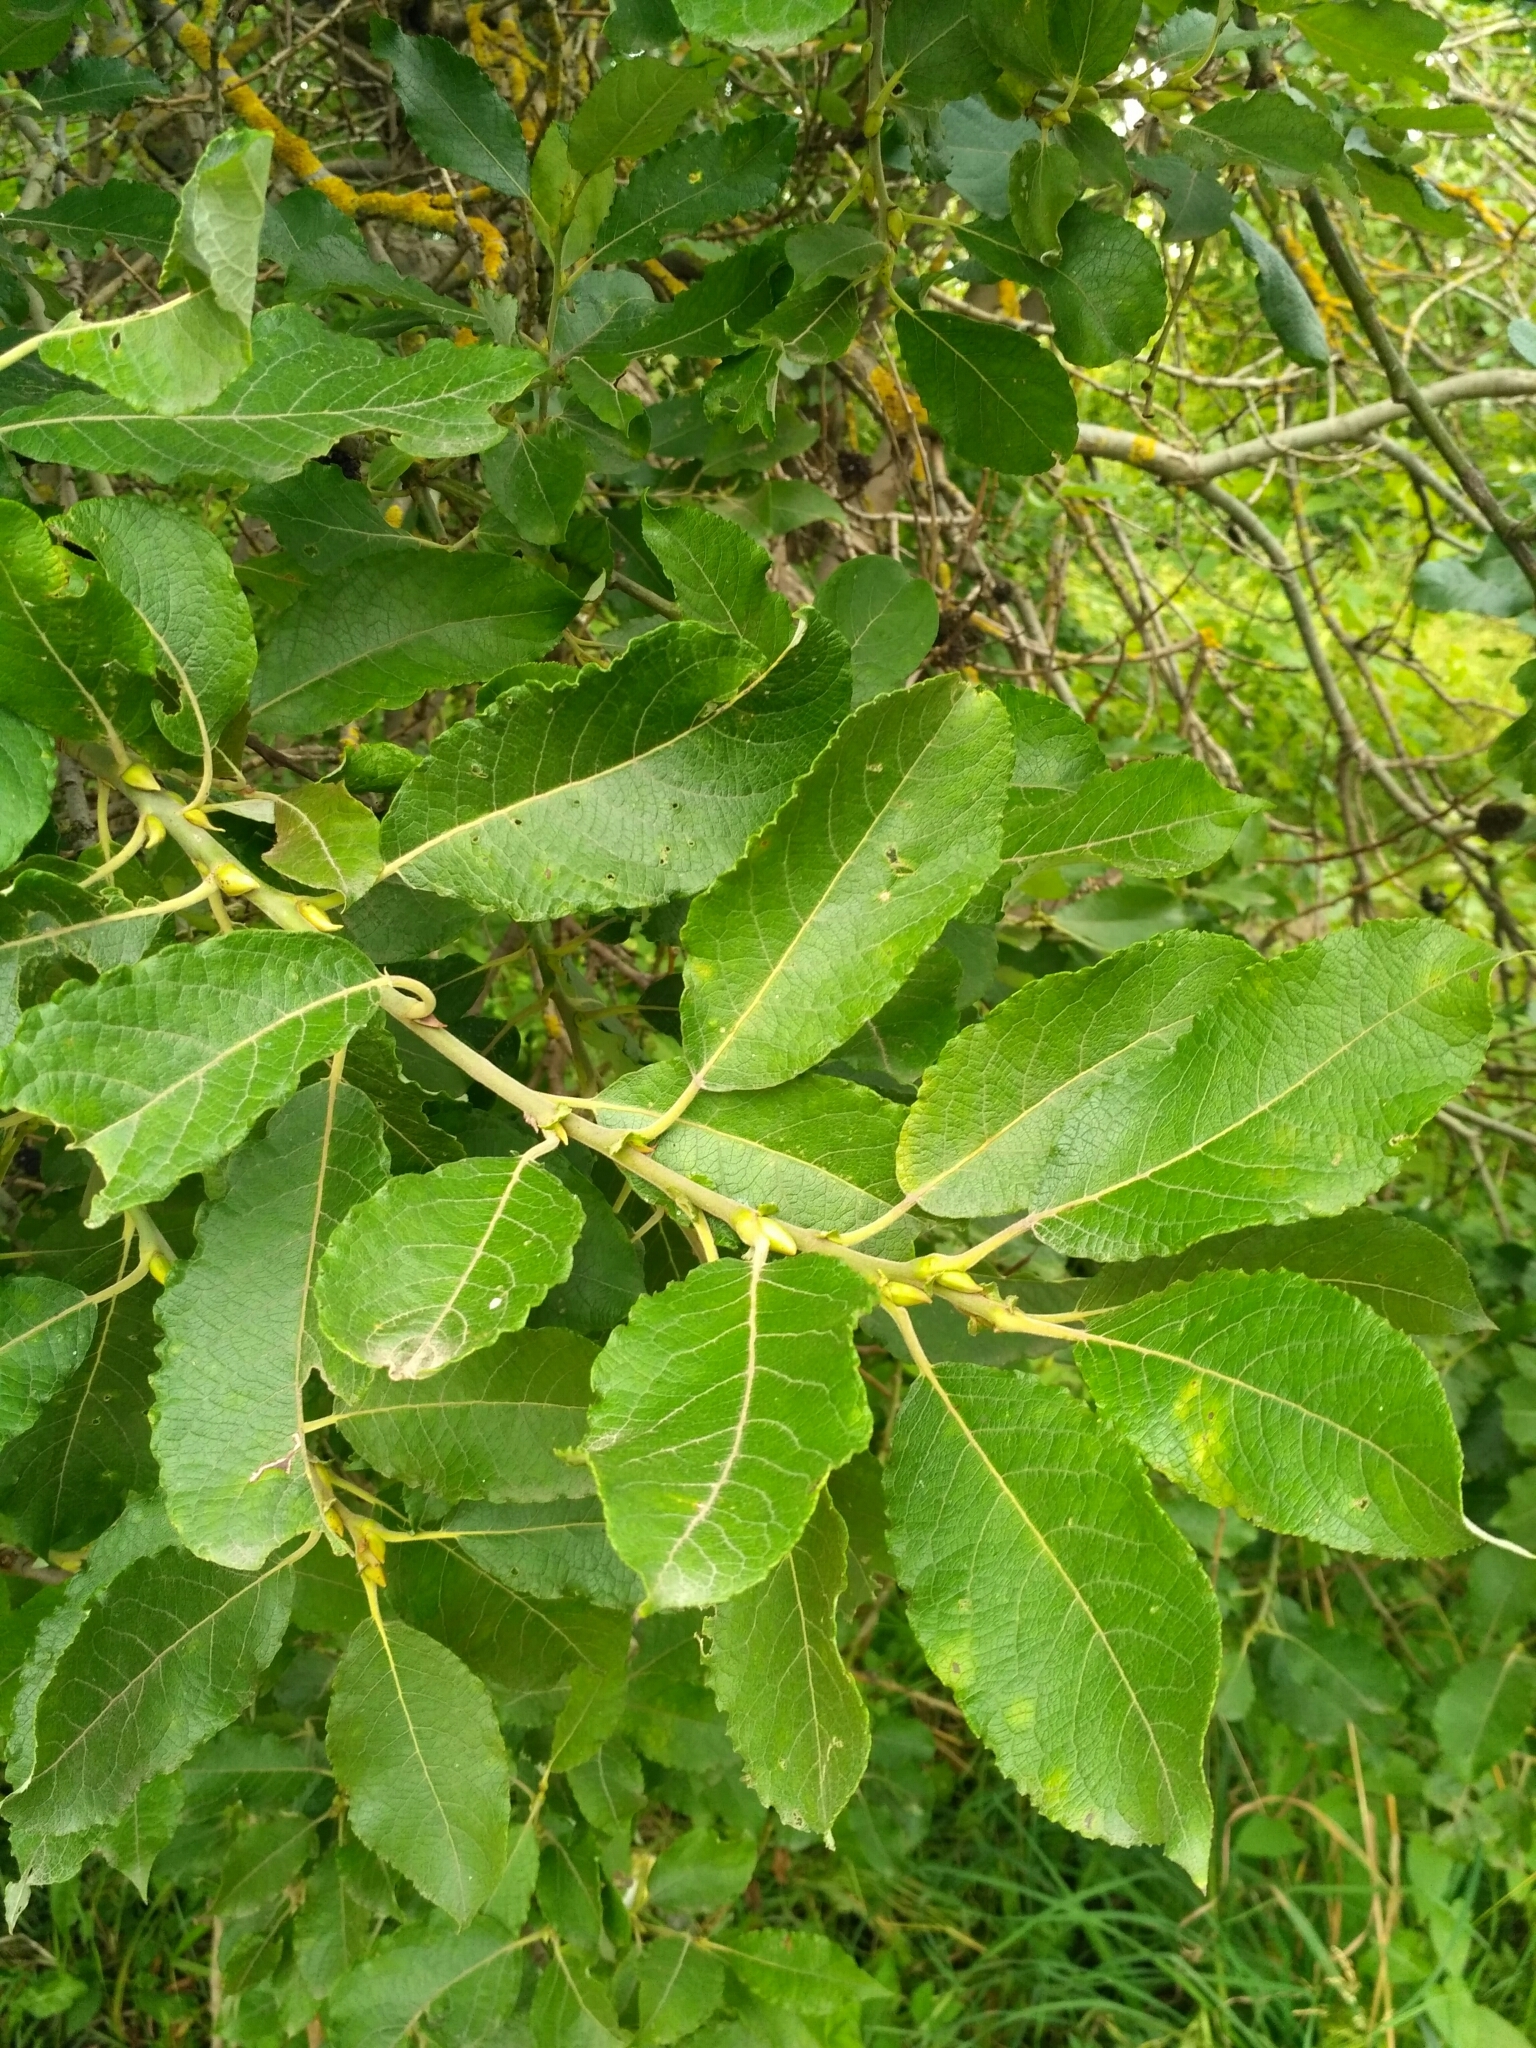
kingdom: Plantae
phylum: Tracheophyta
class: Magnoliopsida
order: Malpighiales
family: Salicaceae
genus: Salix
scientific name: Salix caprea
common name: Goat willow
